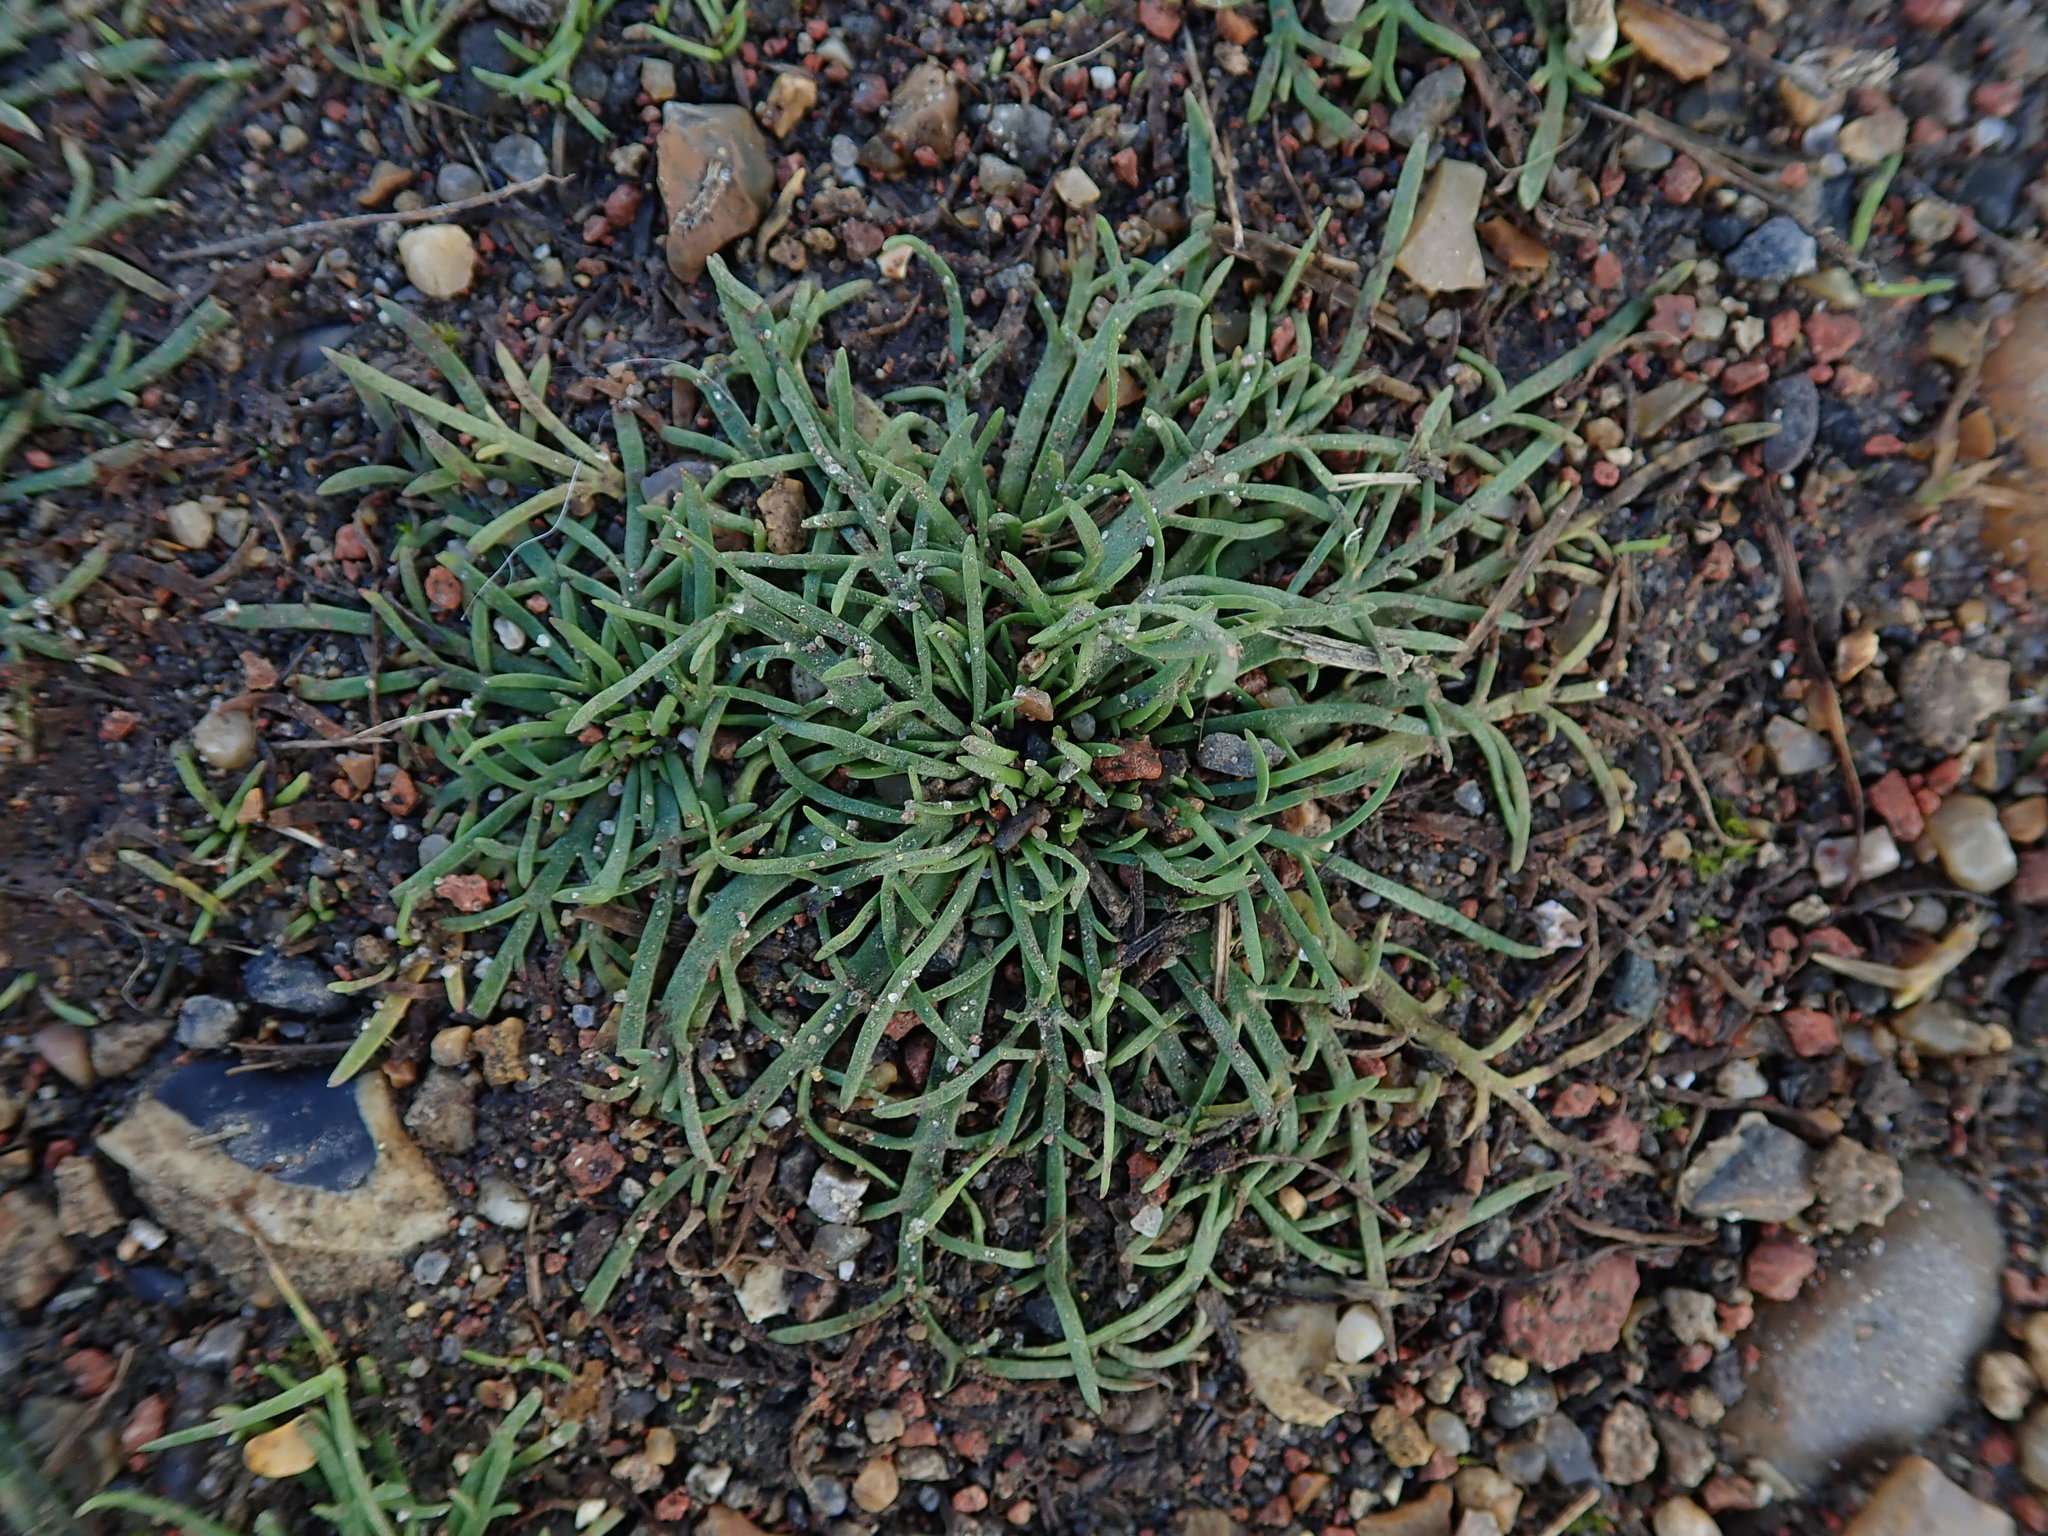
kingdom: Plantae
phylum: Tracheophyta
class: Magnoliopsida
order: Lamiales
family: Plantaginaceae
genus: Plantago
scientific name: Plantago coronopus
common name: Buck's-horn plantain
